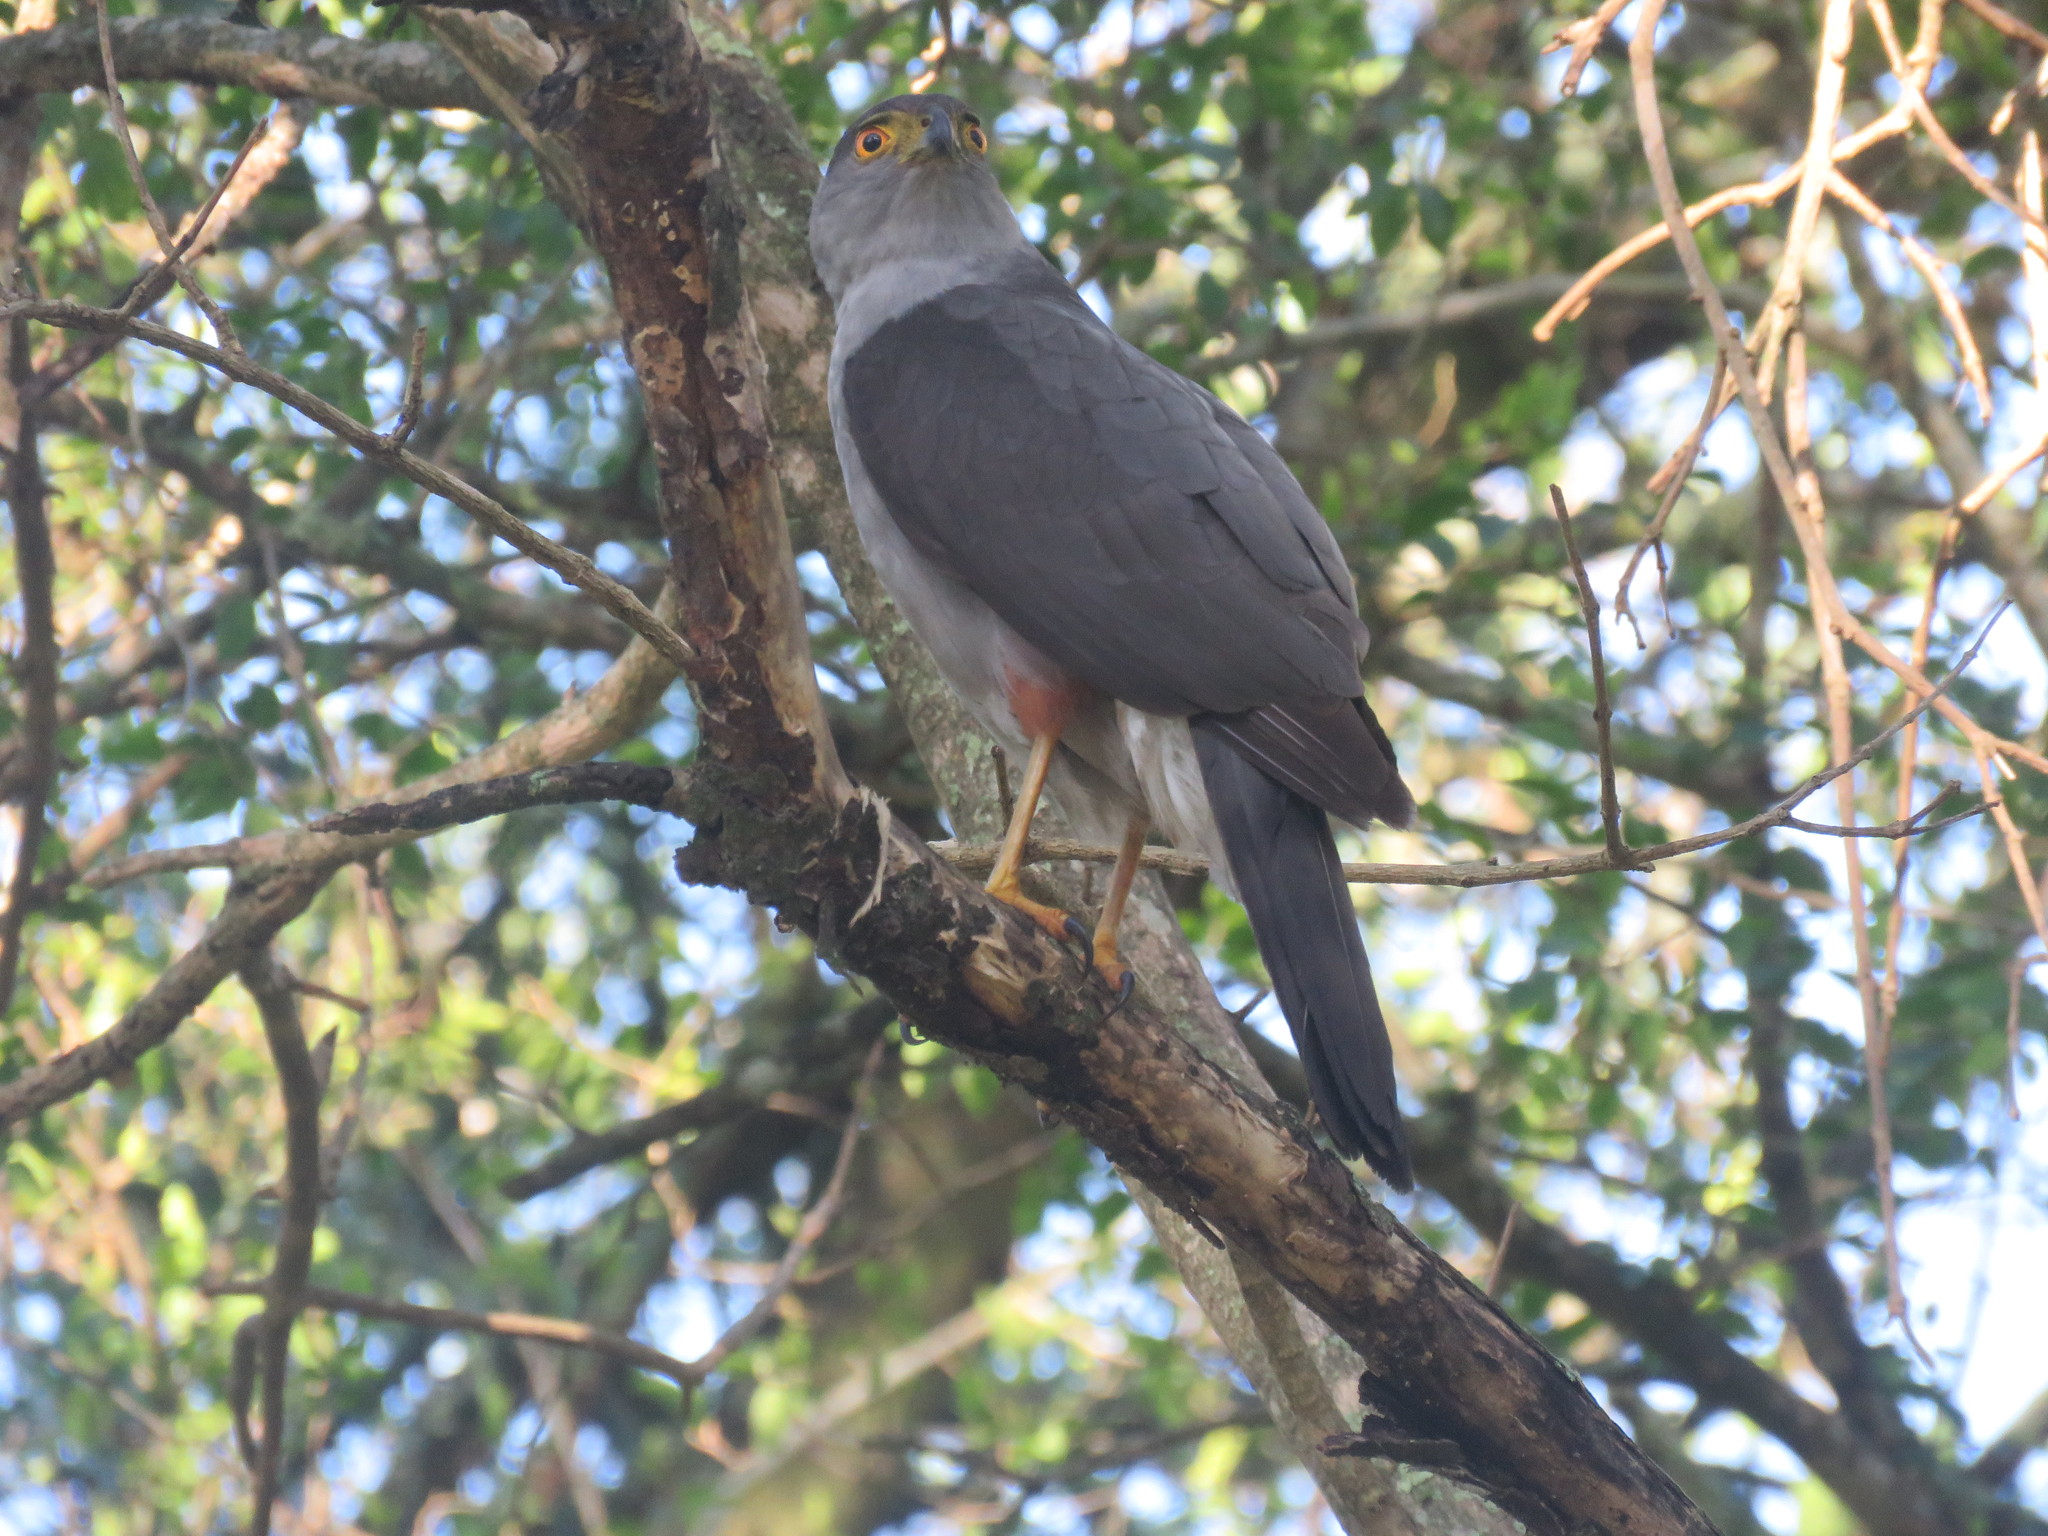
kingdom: Animalia
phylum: Chordata
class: Aves
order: Accipitriformes
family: Accipitridae
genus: Accipiter
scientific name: Accipiter bicolor
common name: Bicolored hawk
